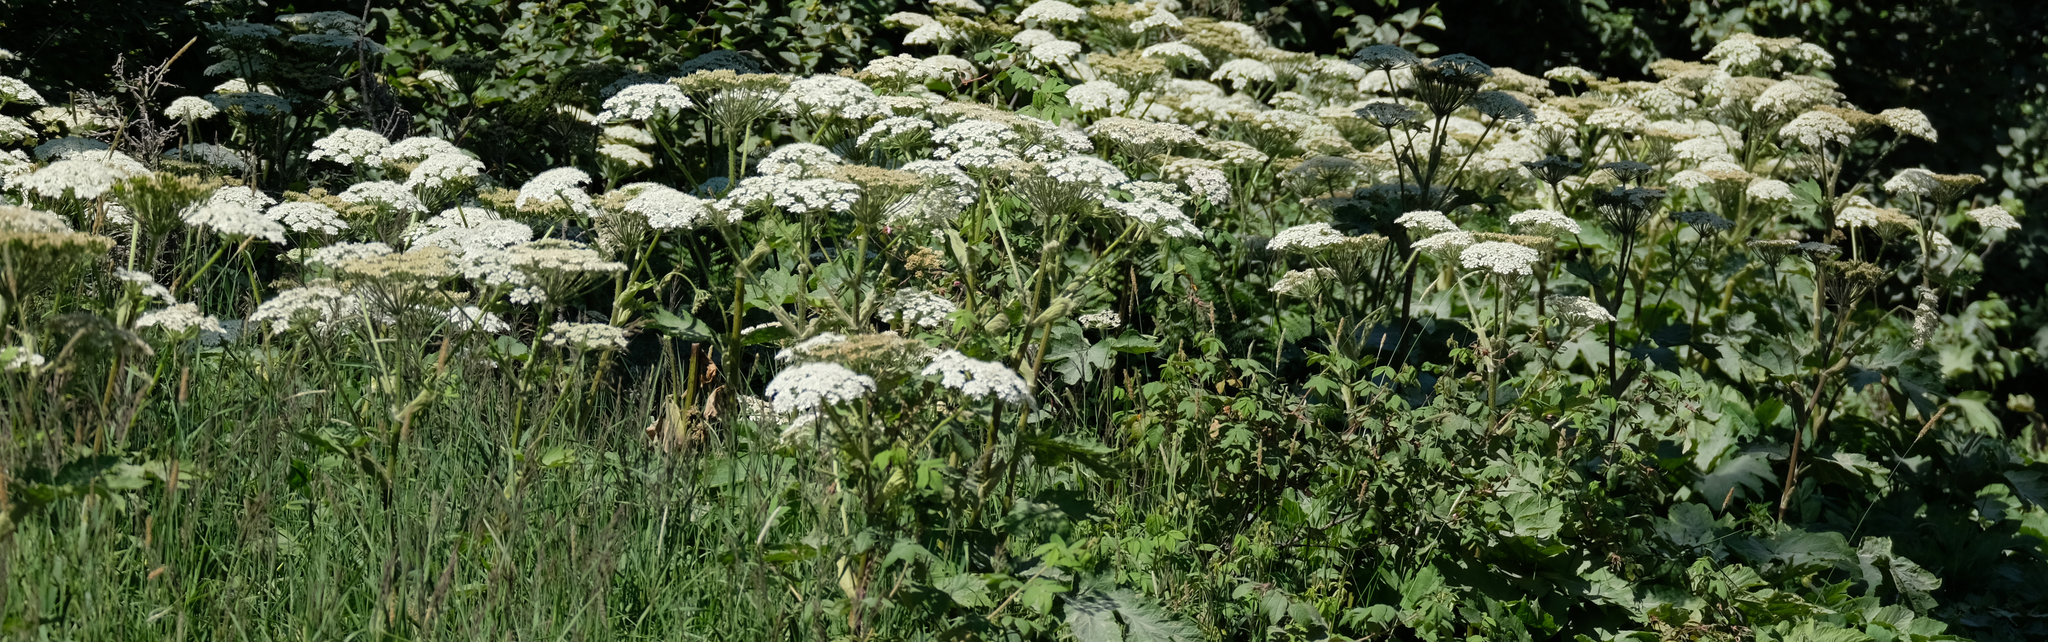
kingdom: Plantae
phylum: Tracheophyta
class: Magnoliopsida
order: Apiales
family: Apiaceae
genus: Heracleum
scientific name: Heracleum maximum
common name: American cow parsnip
